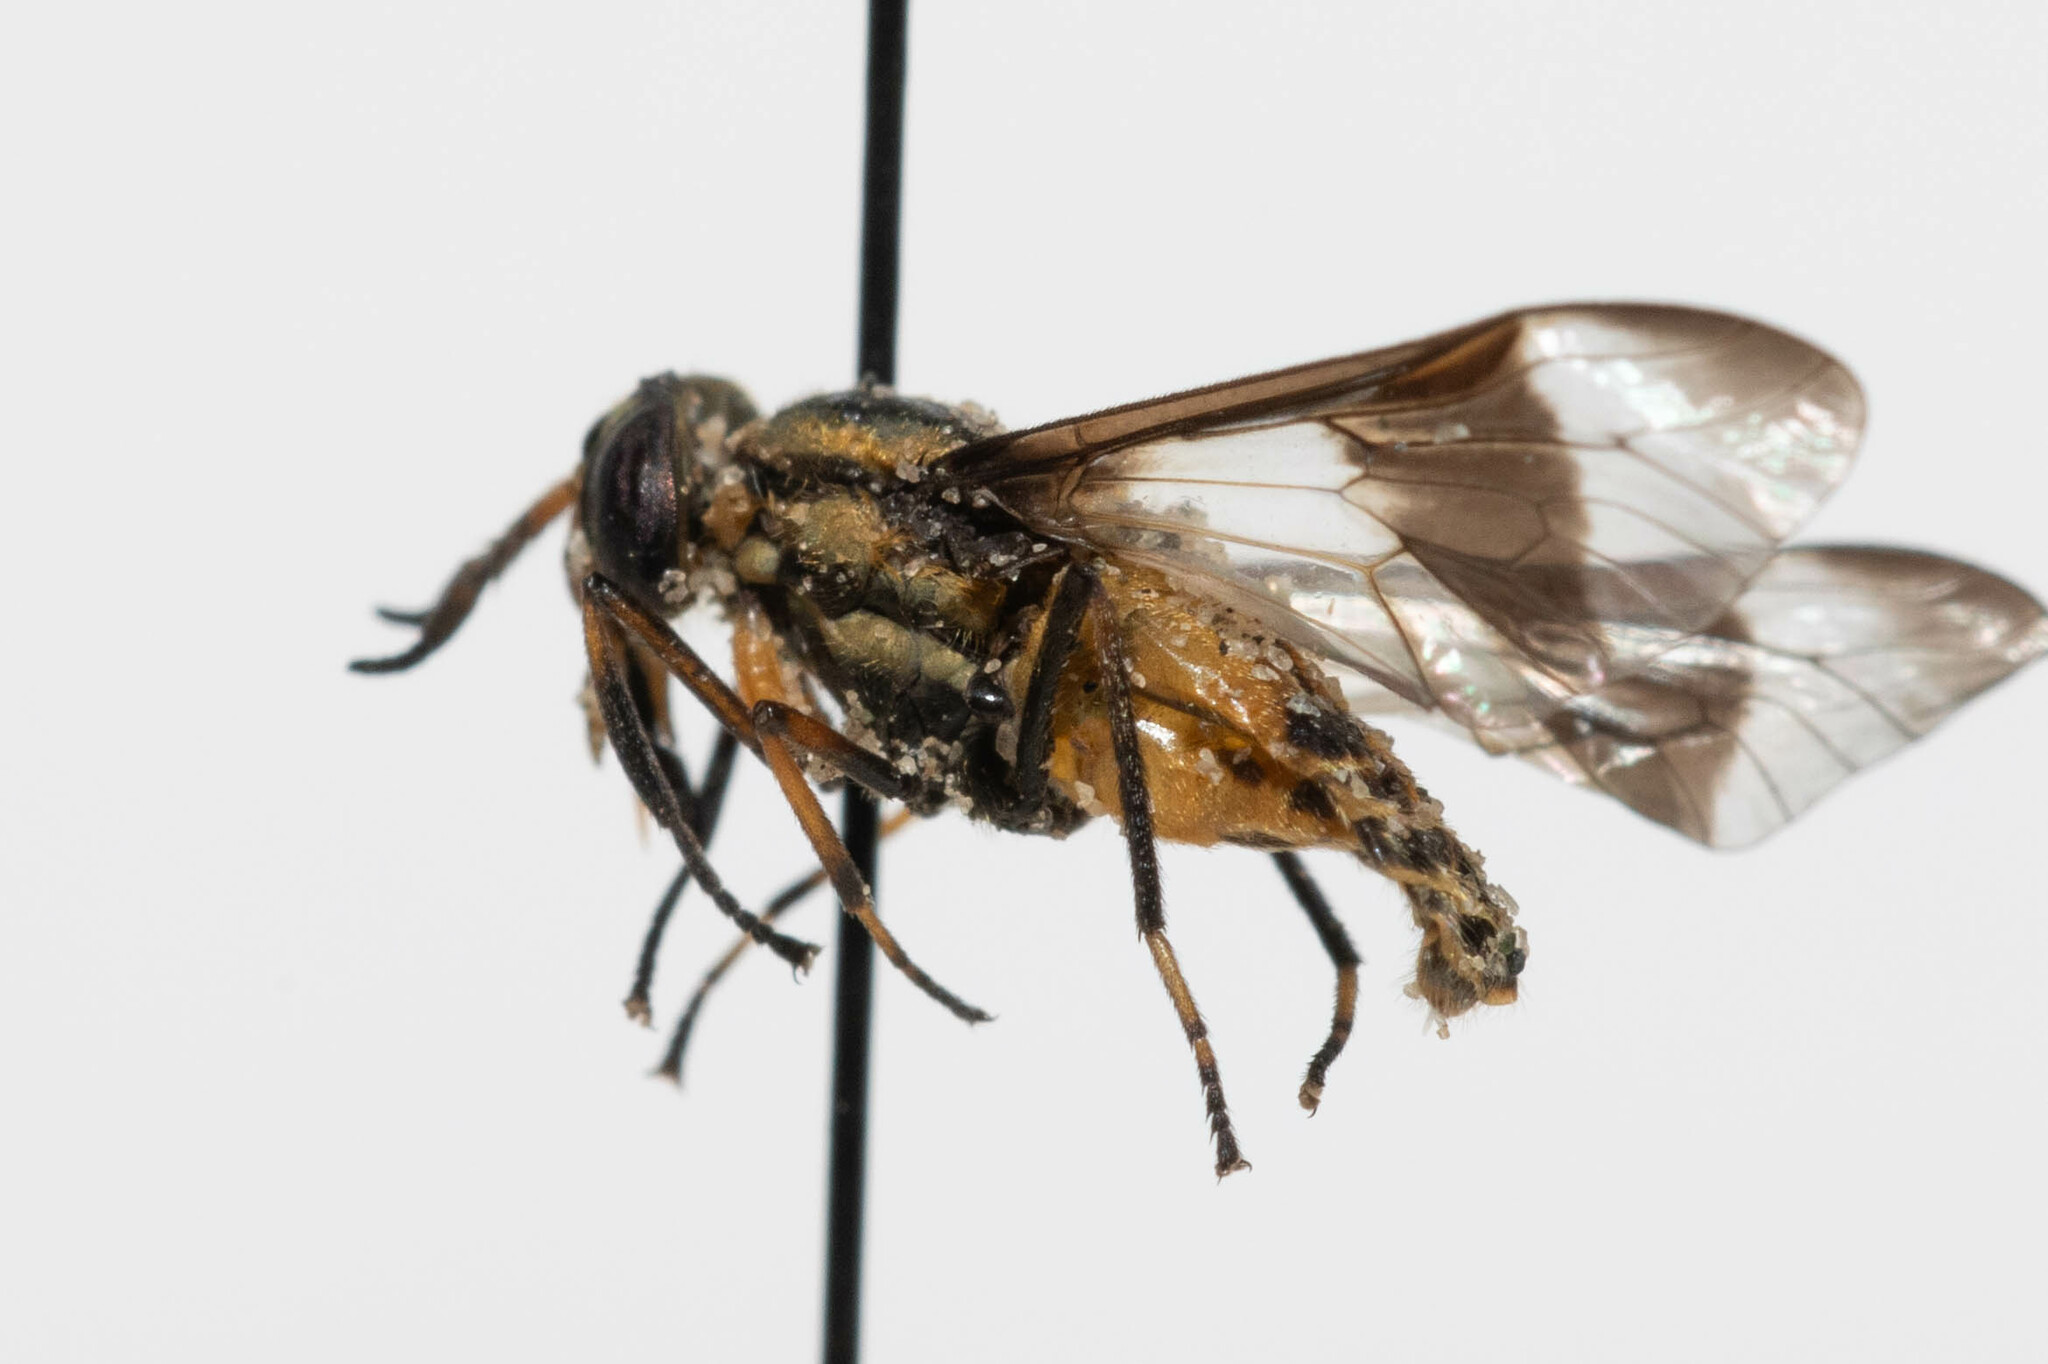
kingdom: Animalia
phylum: Arthropoda
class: Insecta
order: Diptera
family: Tabanidae
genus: Chrysops
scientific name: Chrysops geminatus
